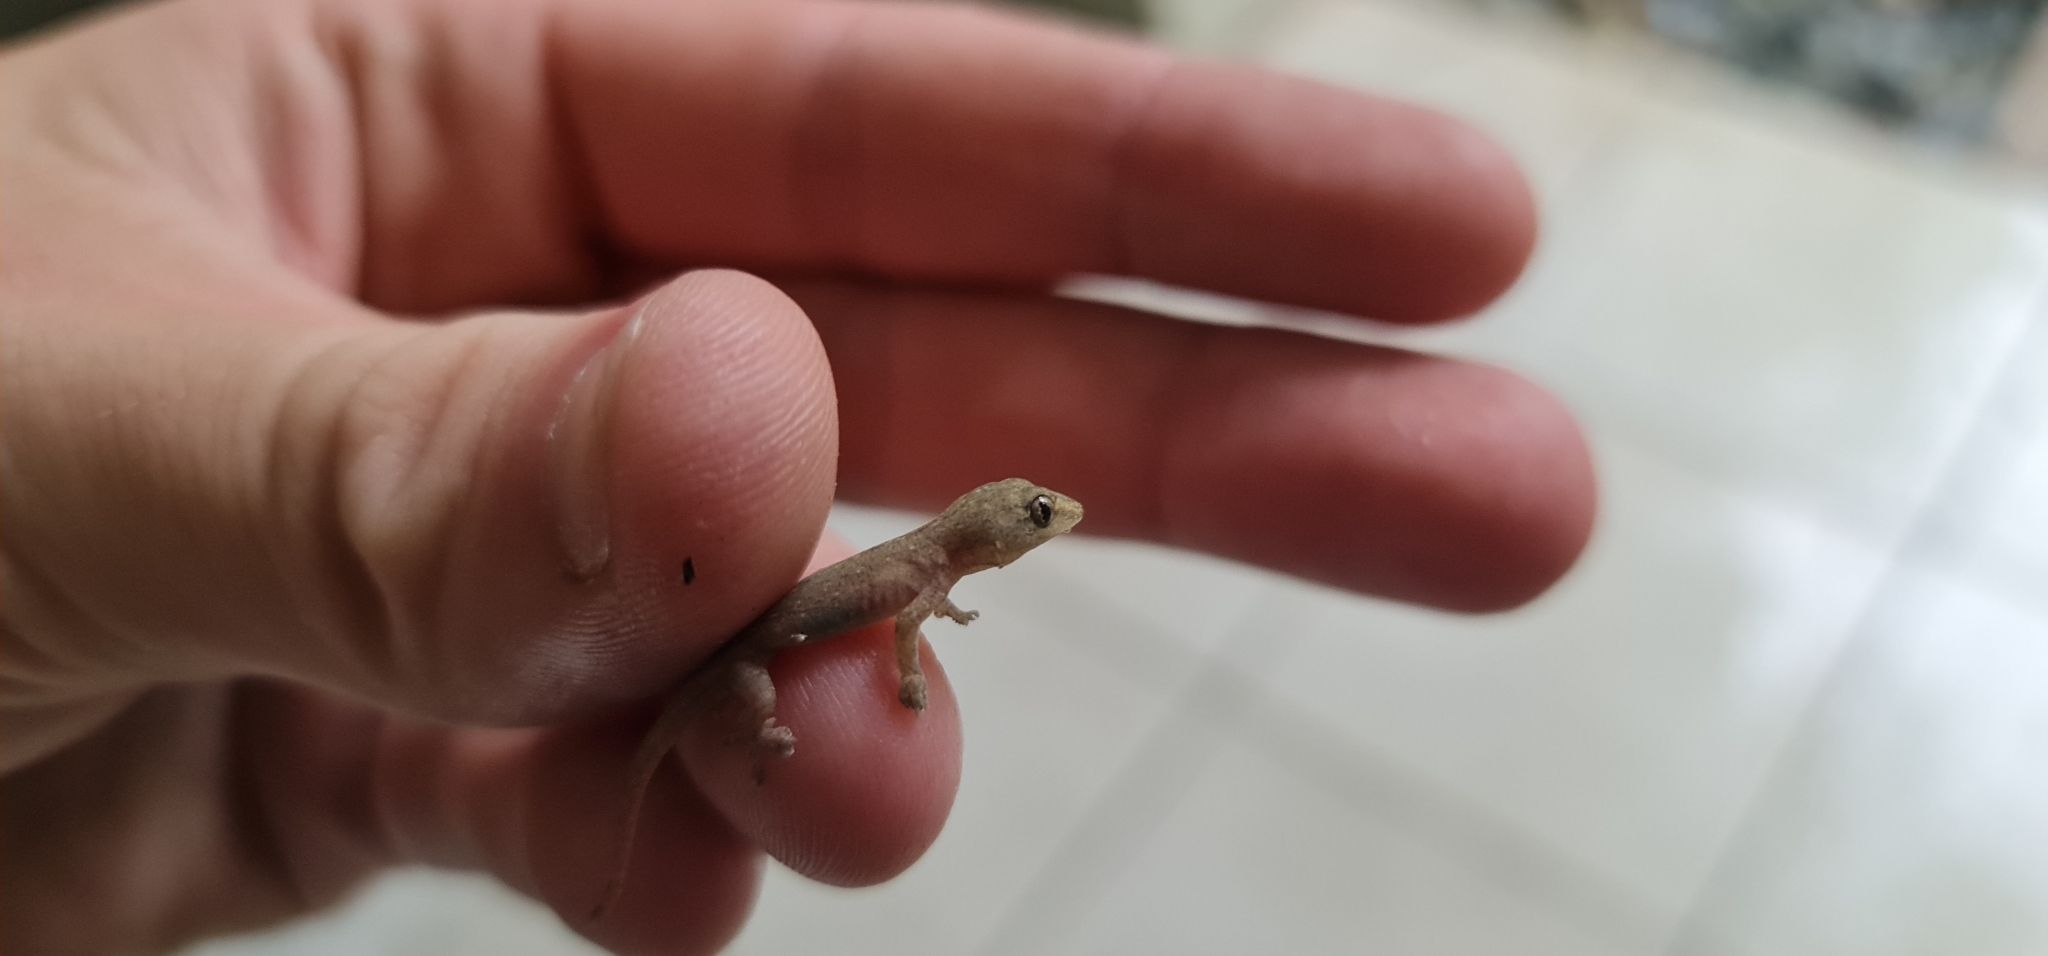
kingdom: Animalia
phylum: Chordata
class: Squamata
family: Gekkonidae
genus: Hemidactylus
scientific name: Hemidactylus frenatus
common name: Common house gecko
